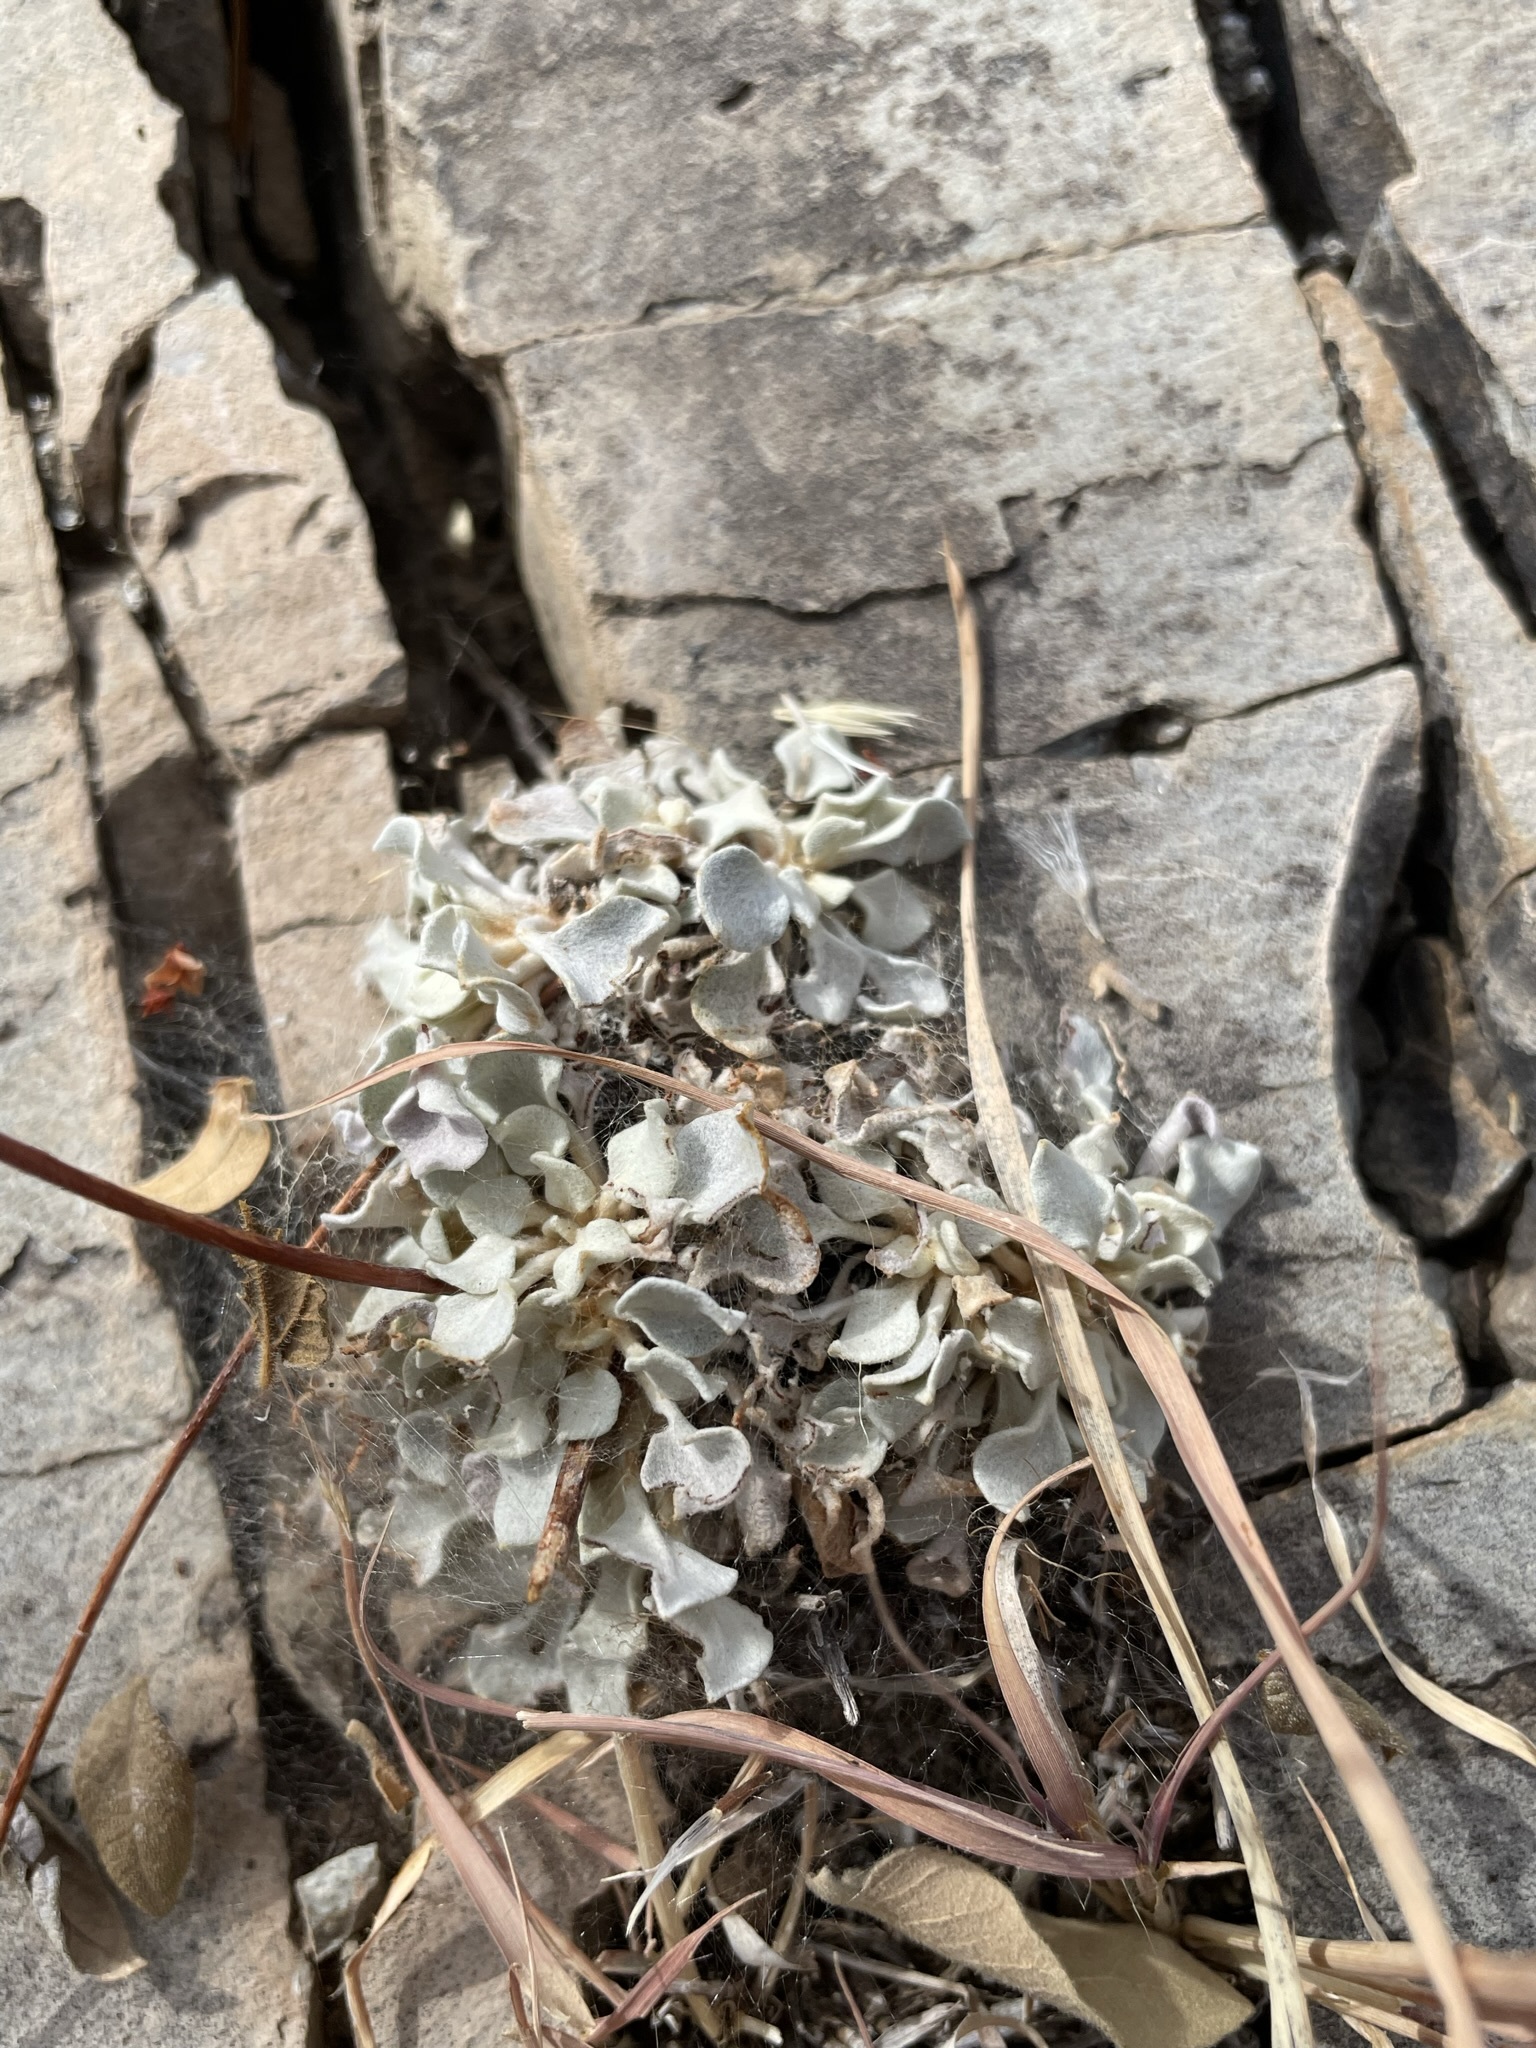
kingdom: Plantae
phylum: Tracheophyta
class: Magnoliopsida
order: Caryophyllales
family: Polygonaceae
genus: Eriogonum
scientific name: Eriogonum tenellum
